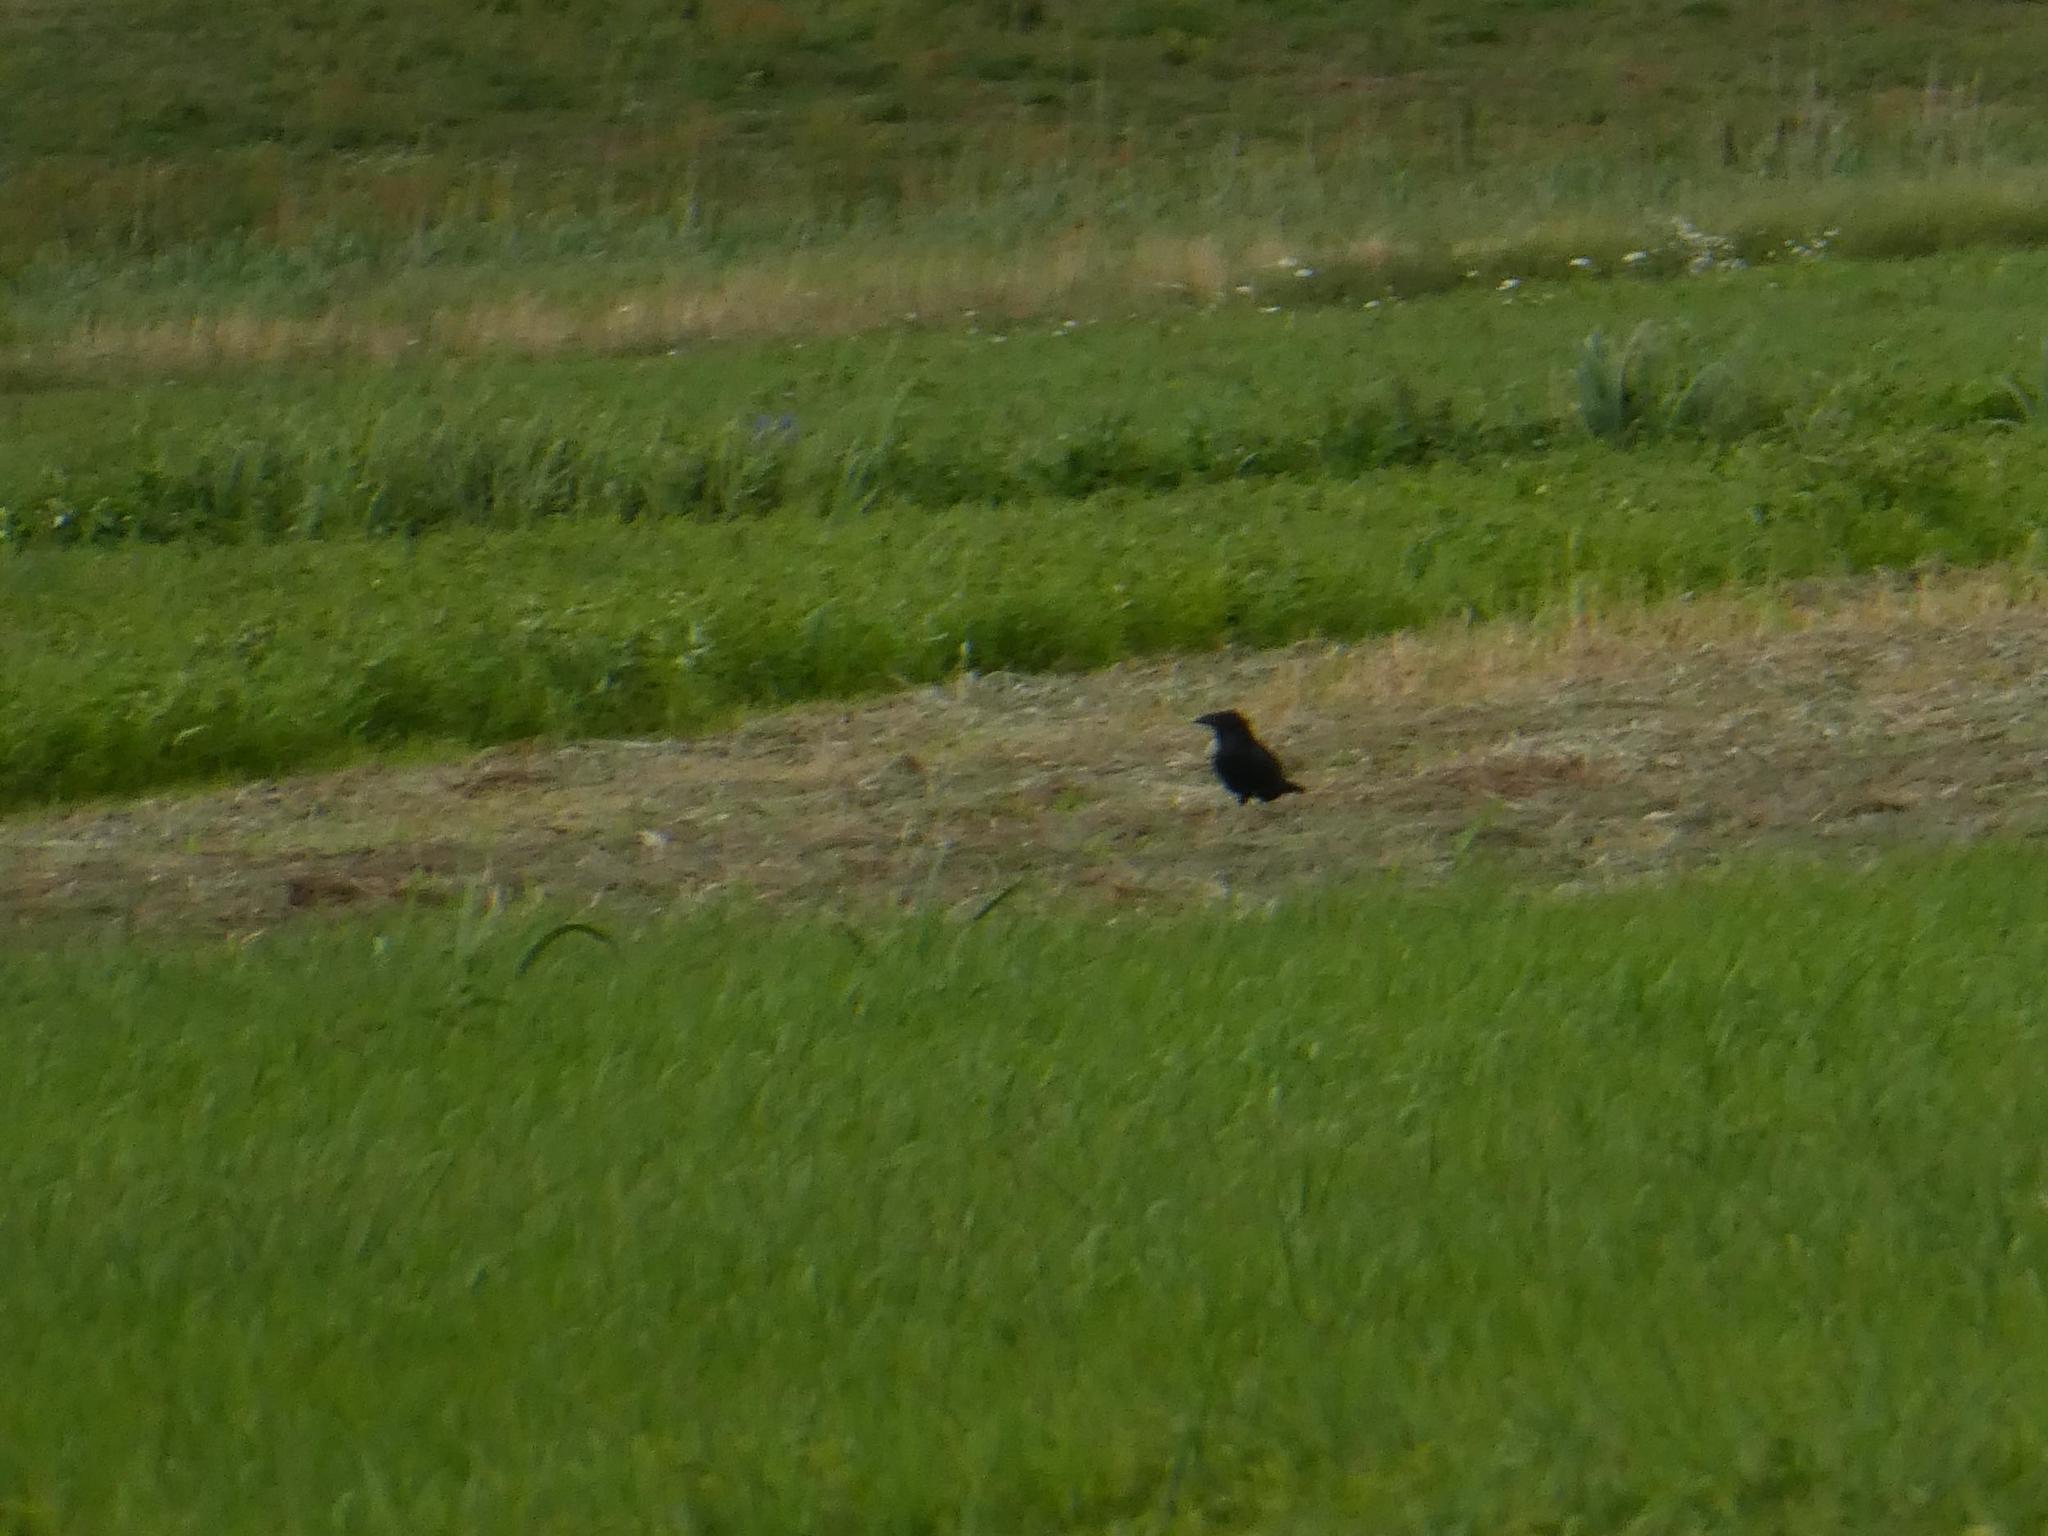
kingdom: Animalia
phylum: Chordata
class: Aves
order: Passeriformes
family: Corvidae
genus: Corvus
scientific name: Corvus corax
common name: Common raven
